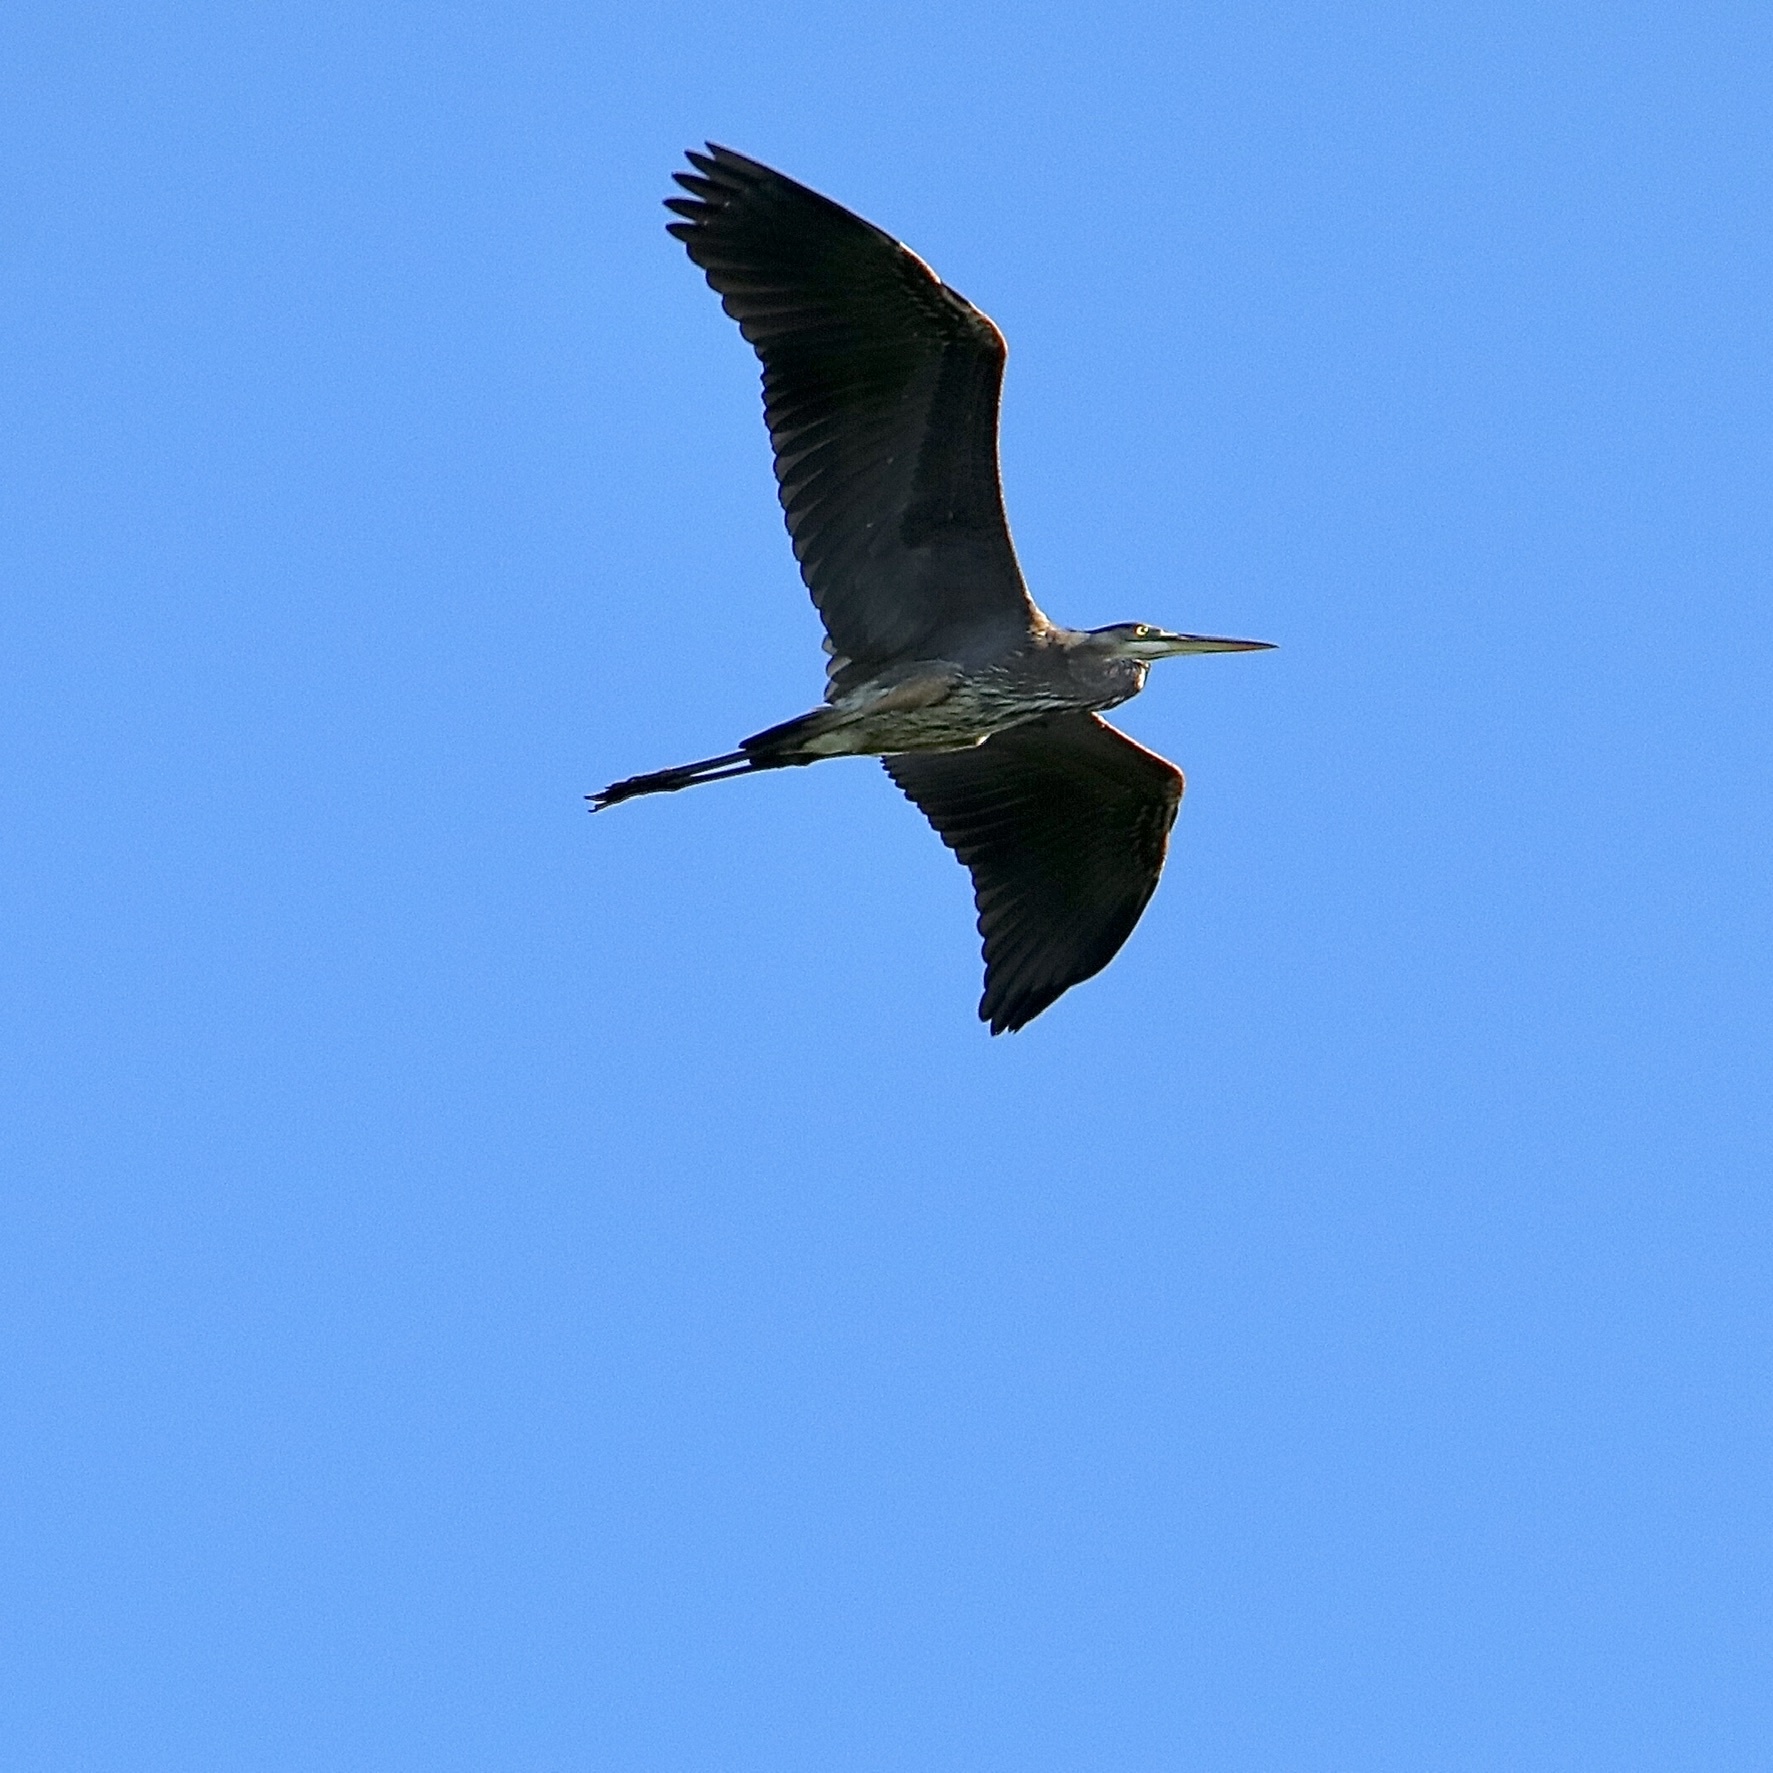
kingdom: Animalia
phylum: Chordata
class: Aves
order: Pelecaniformes
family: Ardeidae
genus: Ardea
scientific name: Ardea herodias
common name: Great blue heron
